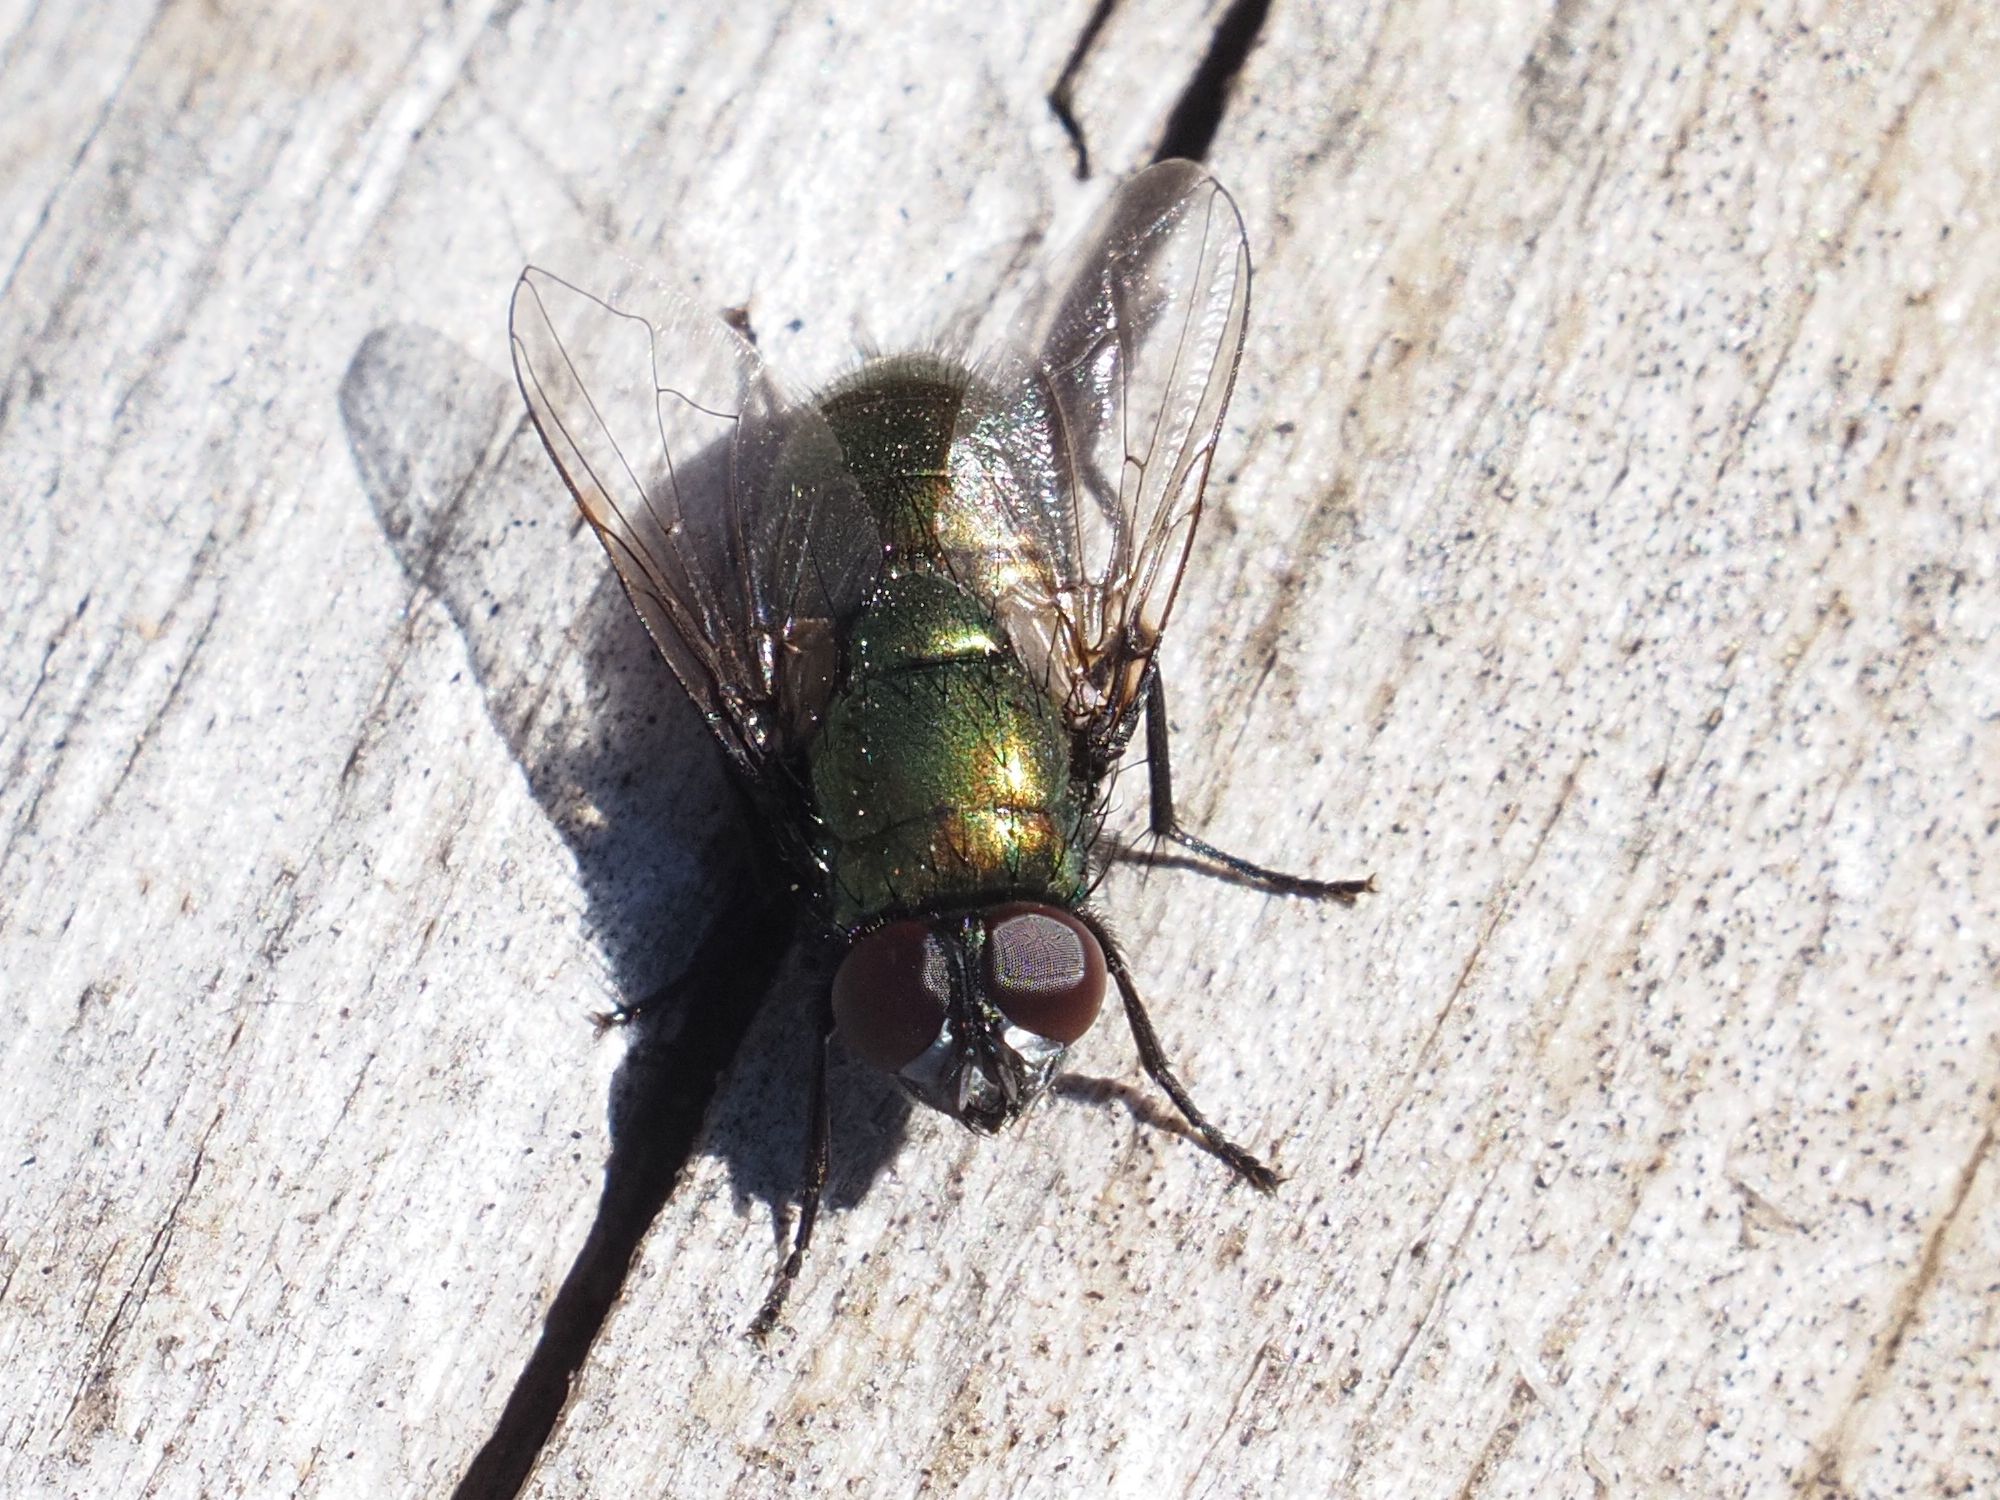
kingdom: Animalia
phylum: Arthropoda
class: Insecta
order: Diptera
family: Muscidae
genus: Neomyia
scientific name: Neomyia cornicina
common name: House fly
